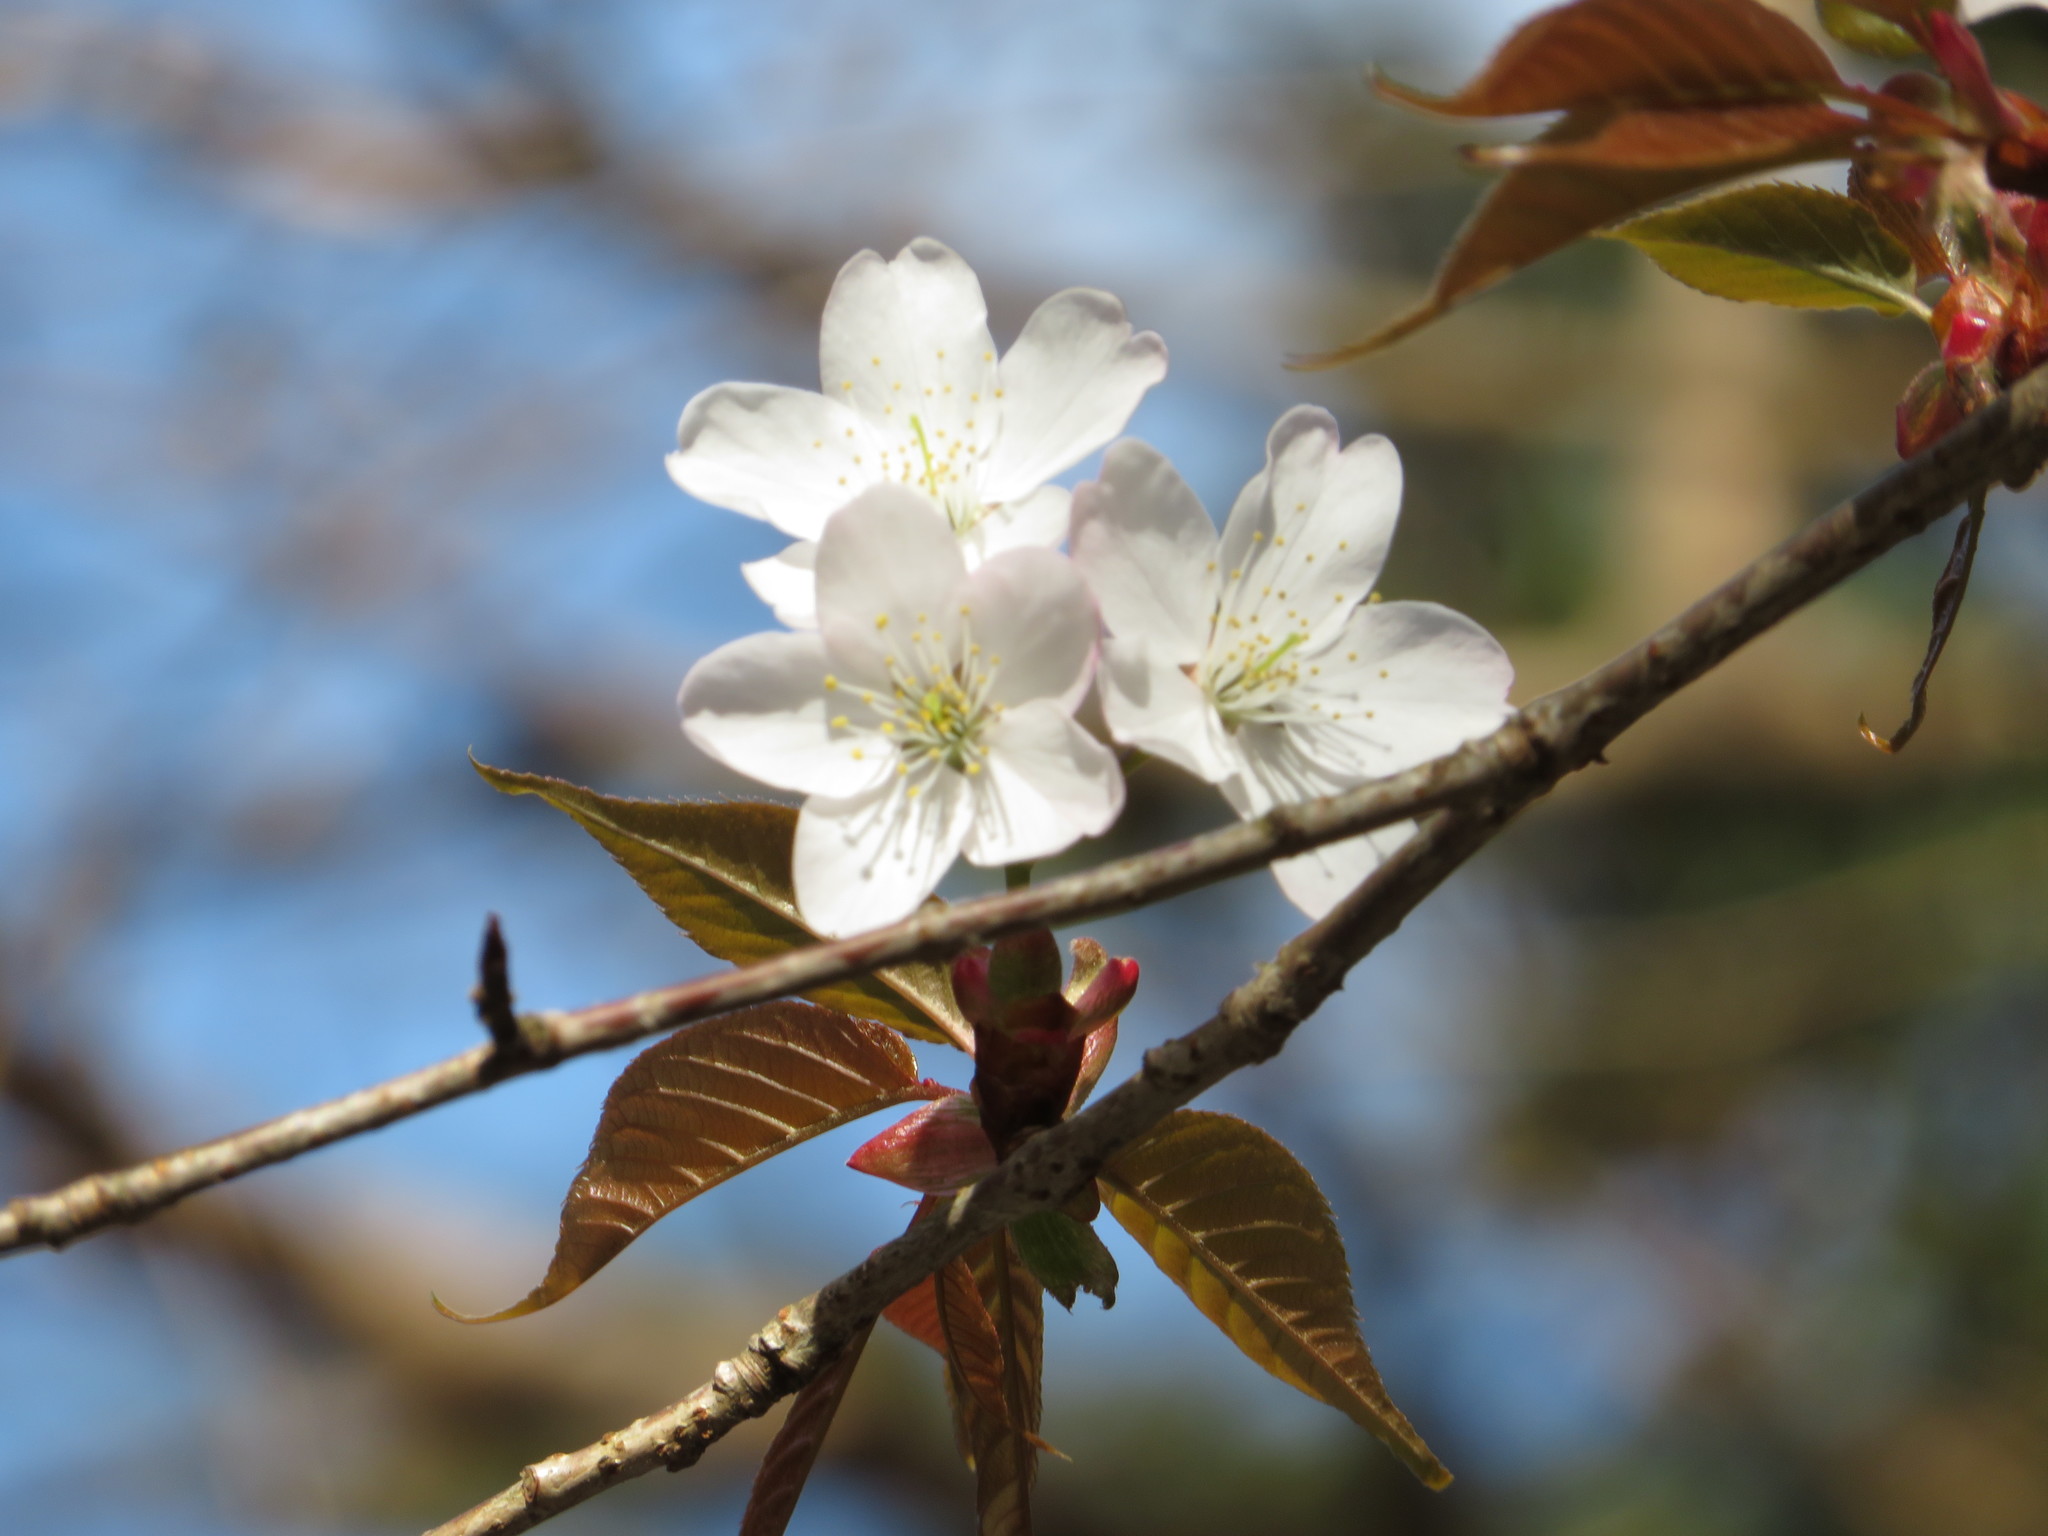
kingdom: Plantae
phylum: Tracheophyta
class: Magnoliopsida
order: Rosales
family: Rosaceae
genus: Prunus
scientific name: Prunus jamasakura
